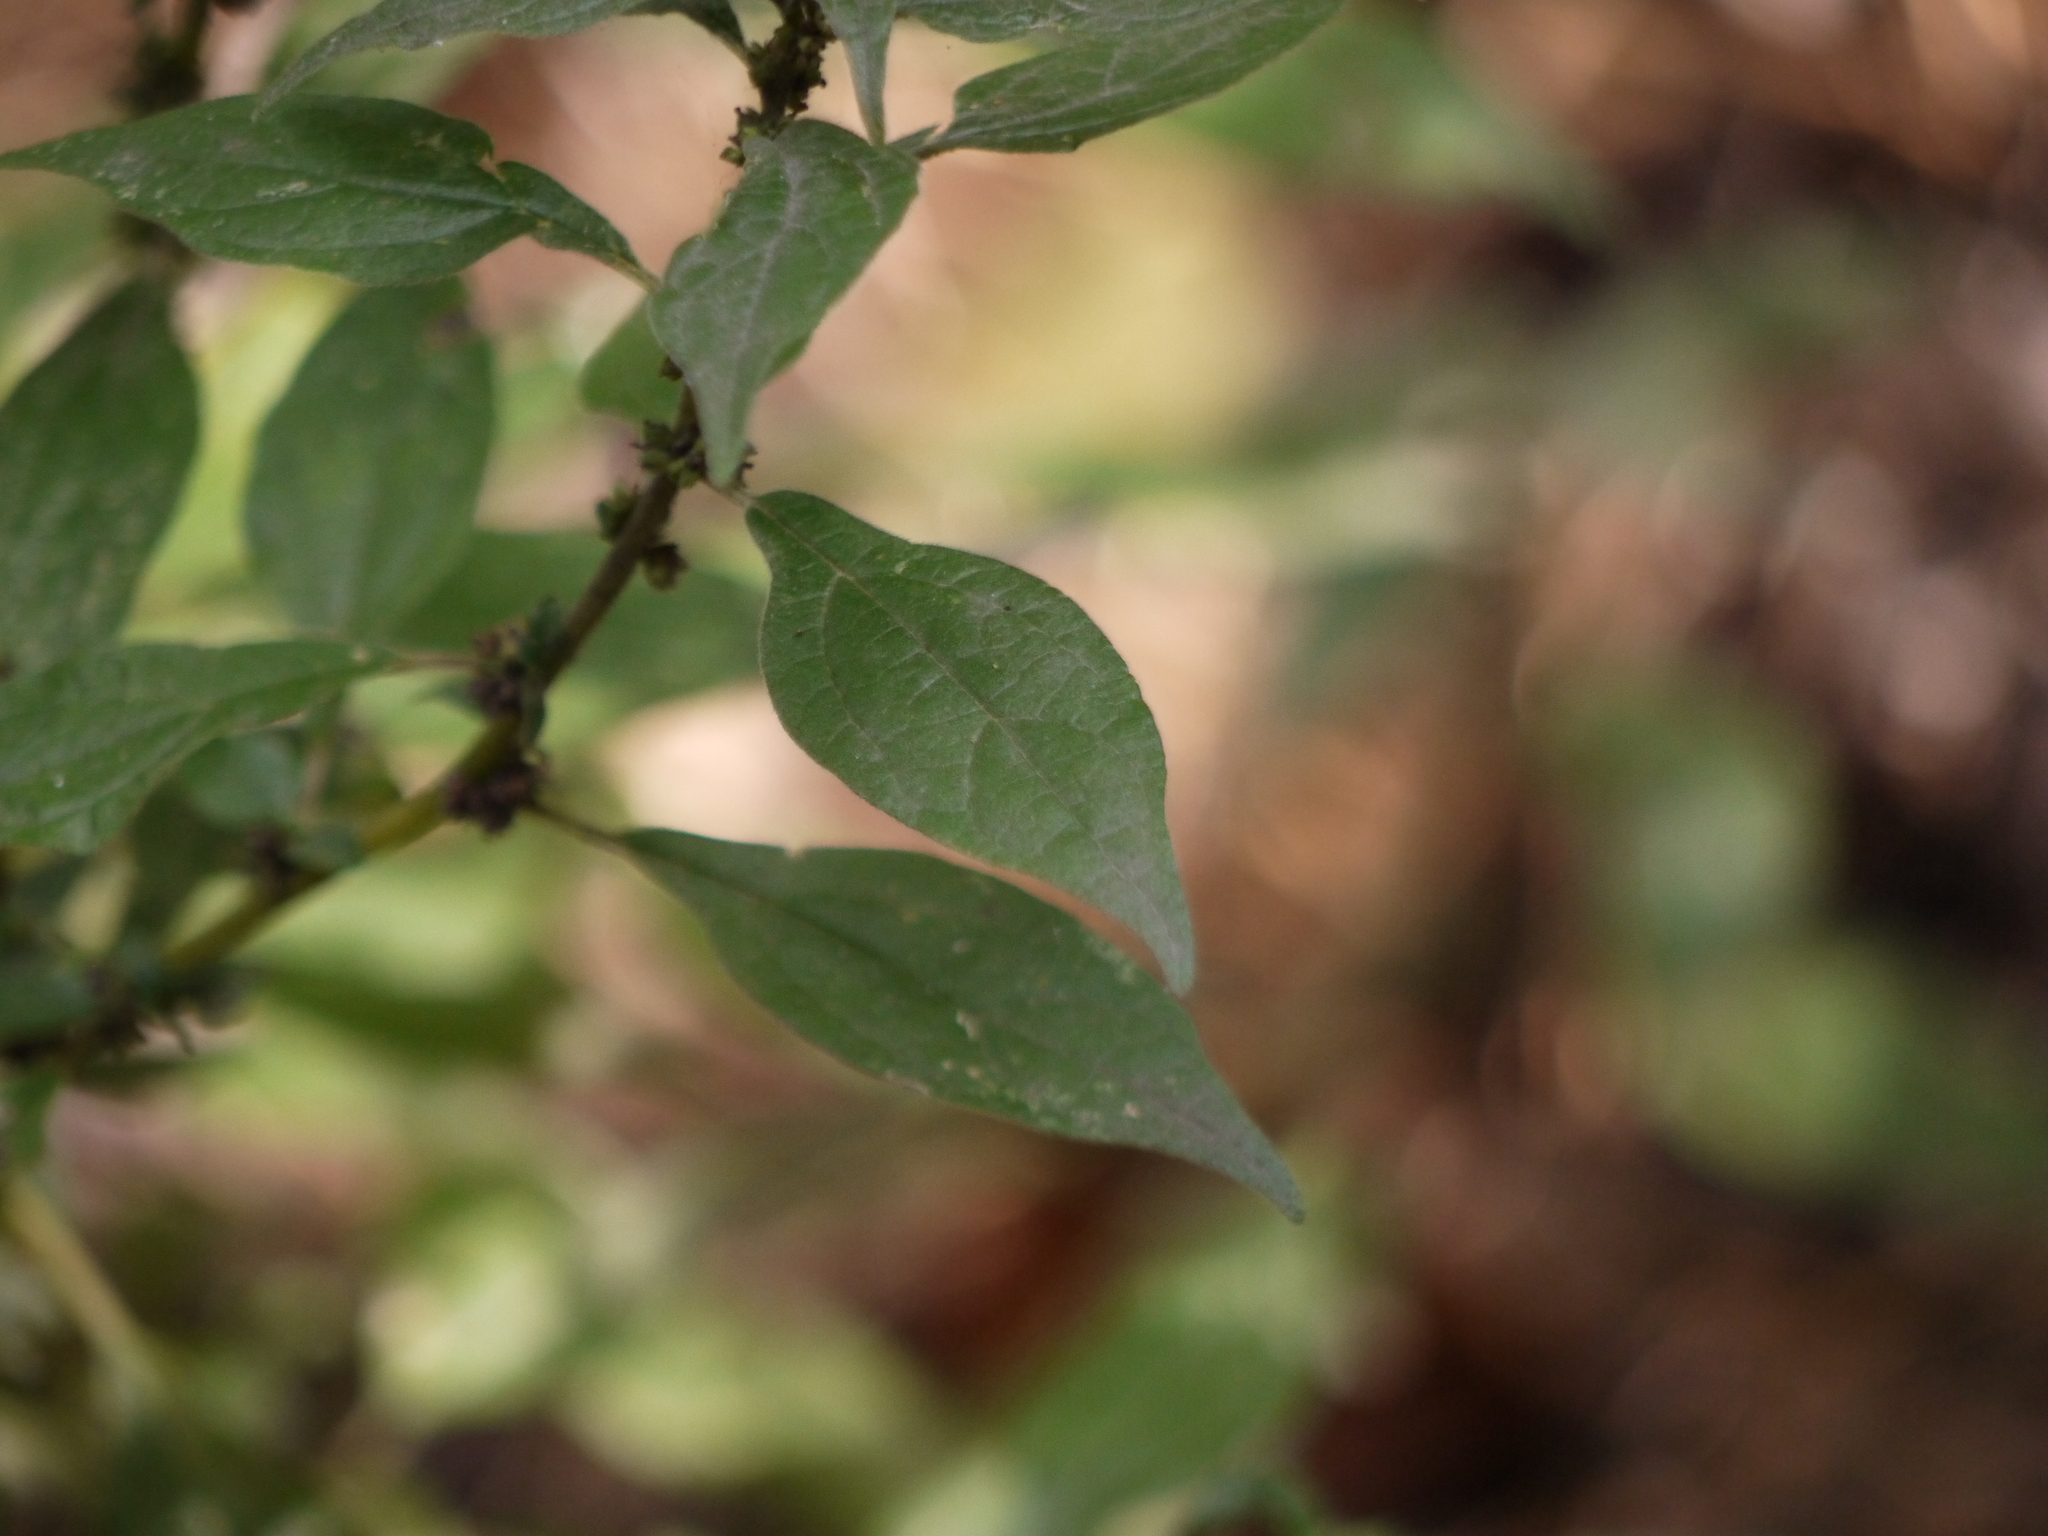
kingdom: Plantae
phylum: Tracheophyta
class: Magnoliopsida
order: Rosales
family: Urticaceae
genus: Parietaria
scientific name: Parietaria officinalis
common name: Eastern pellitory-of-the-wall
